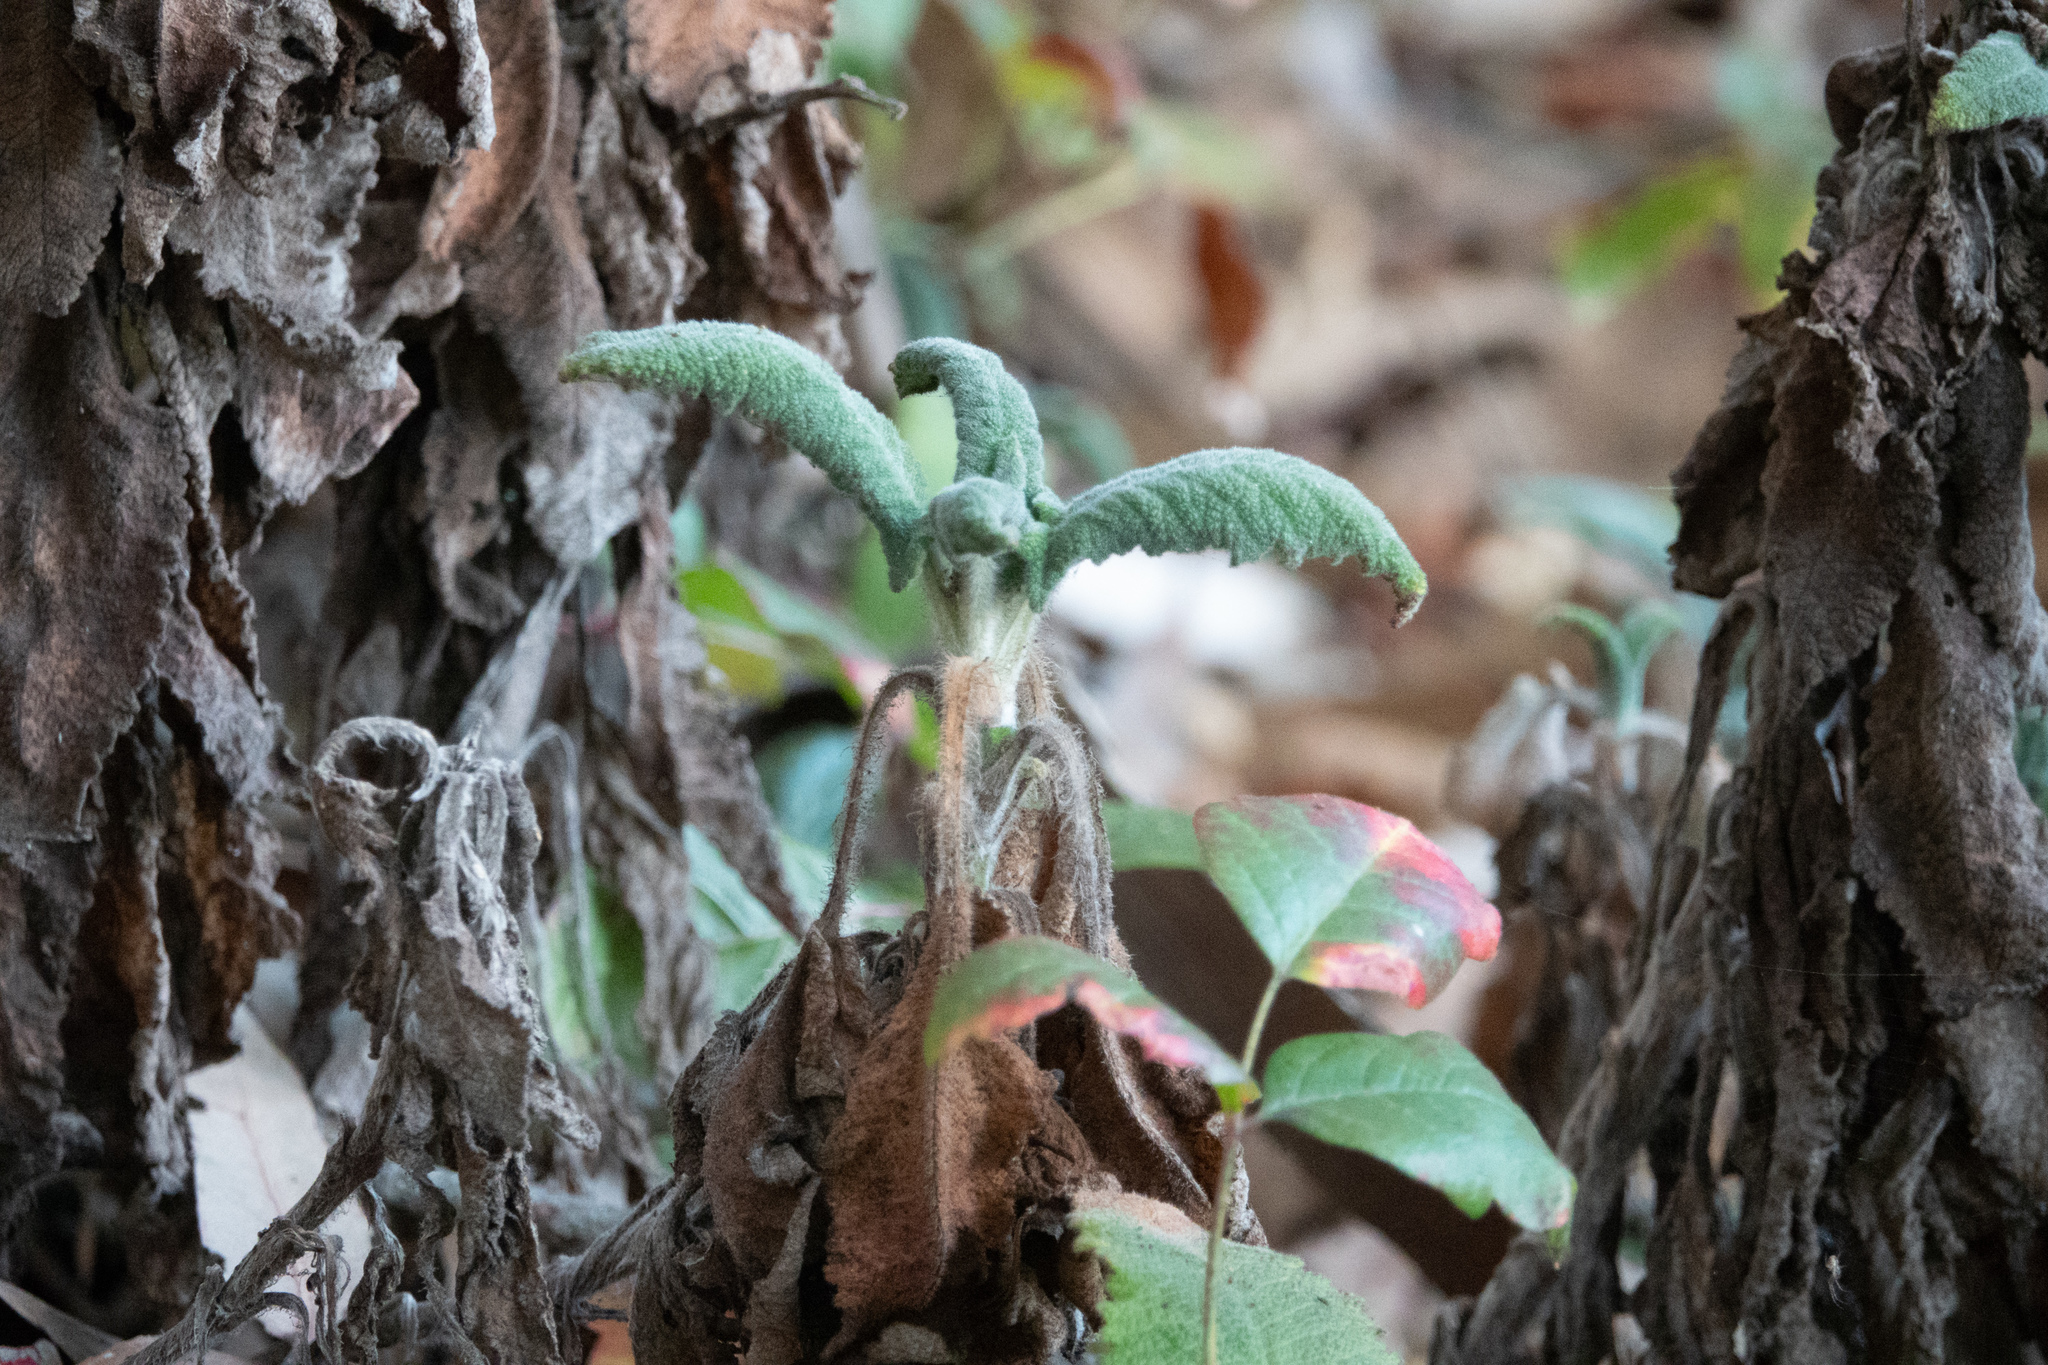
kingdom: Plantae
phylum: Tracheophyta
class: Magnoliopsida
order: Lamiales
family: Lamiaceae
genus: Salvia
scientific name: Salvia spathacea
